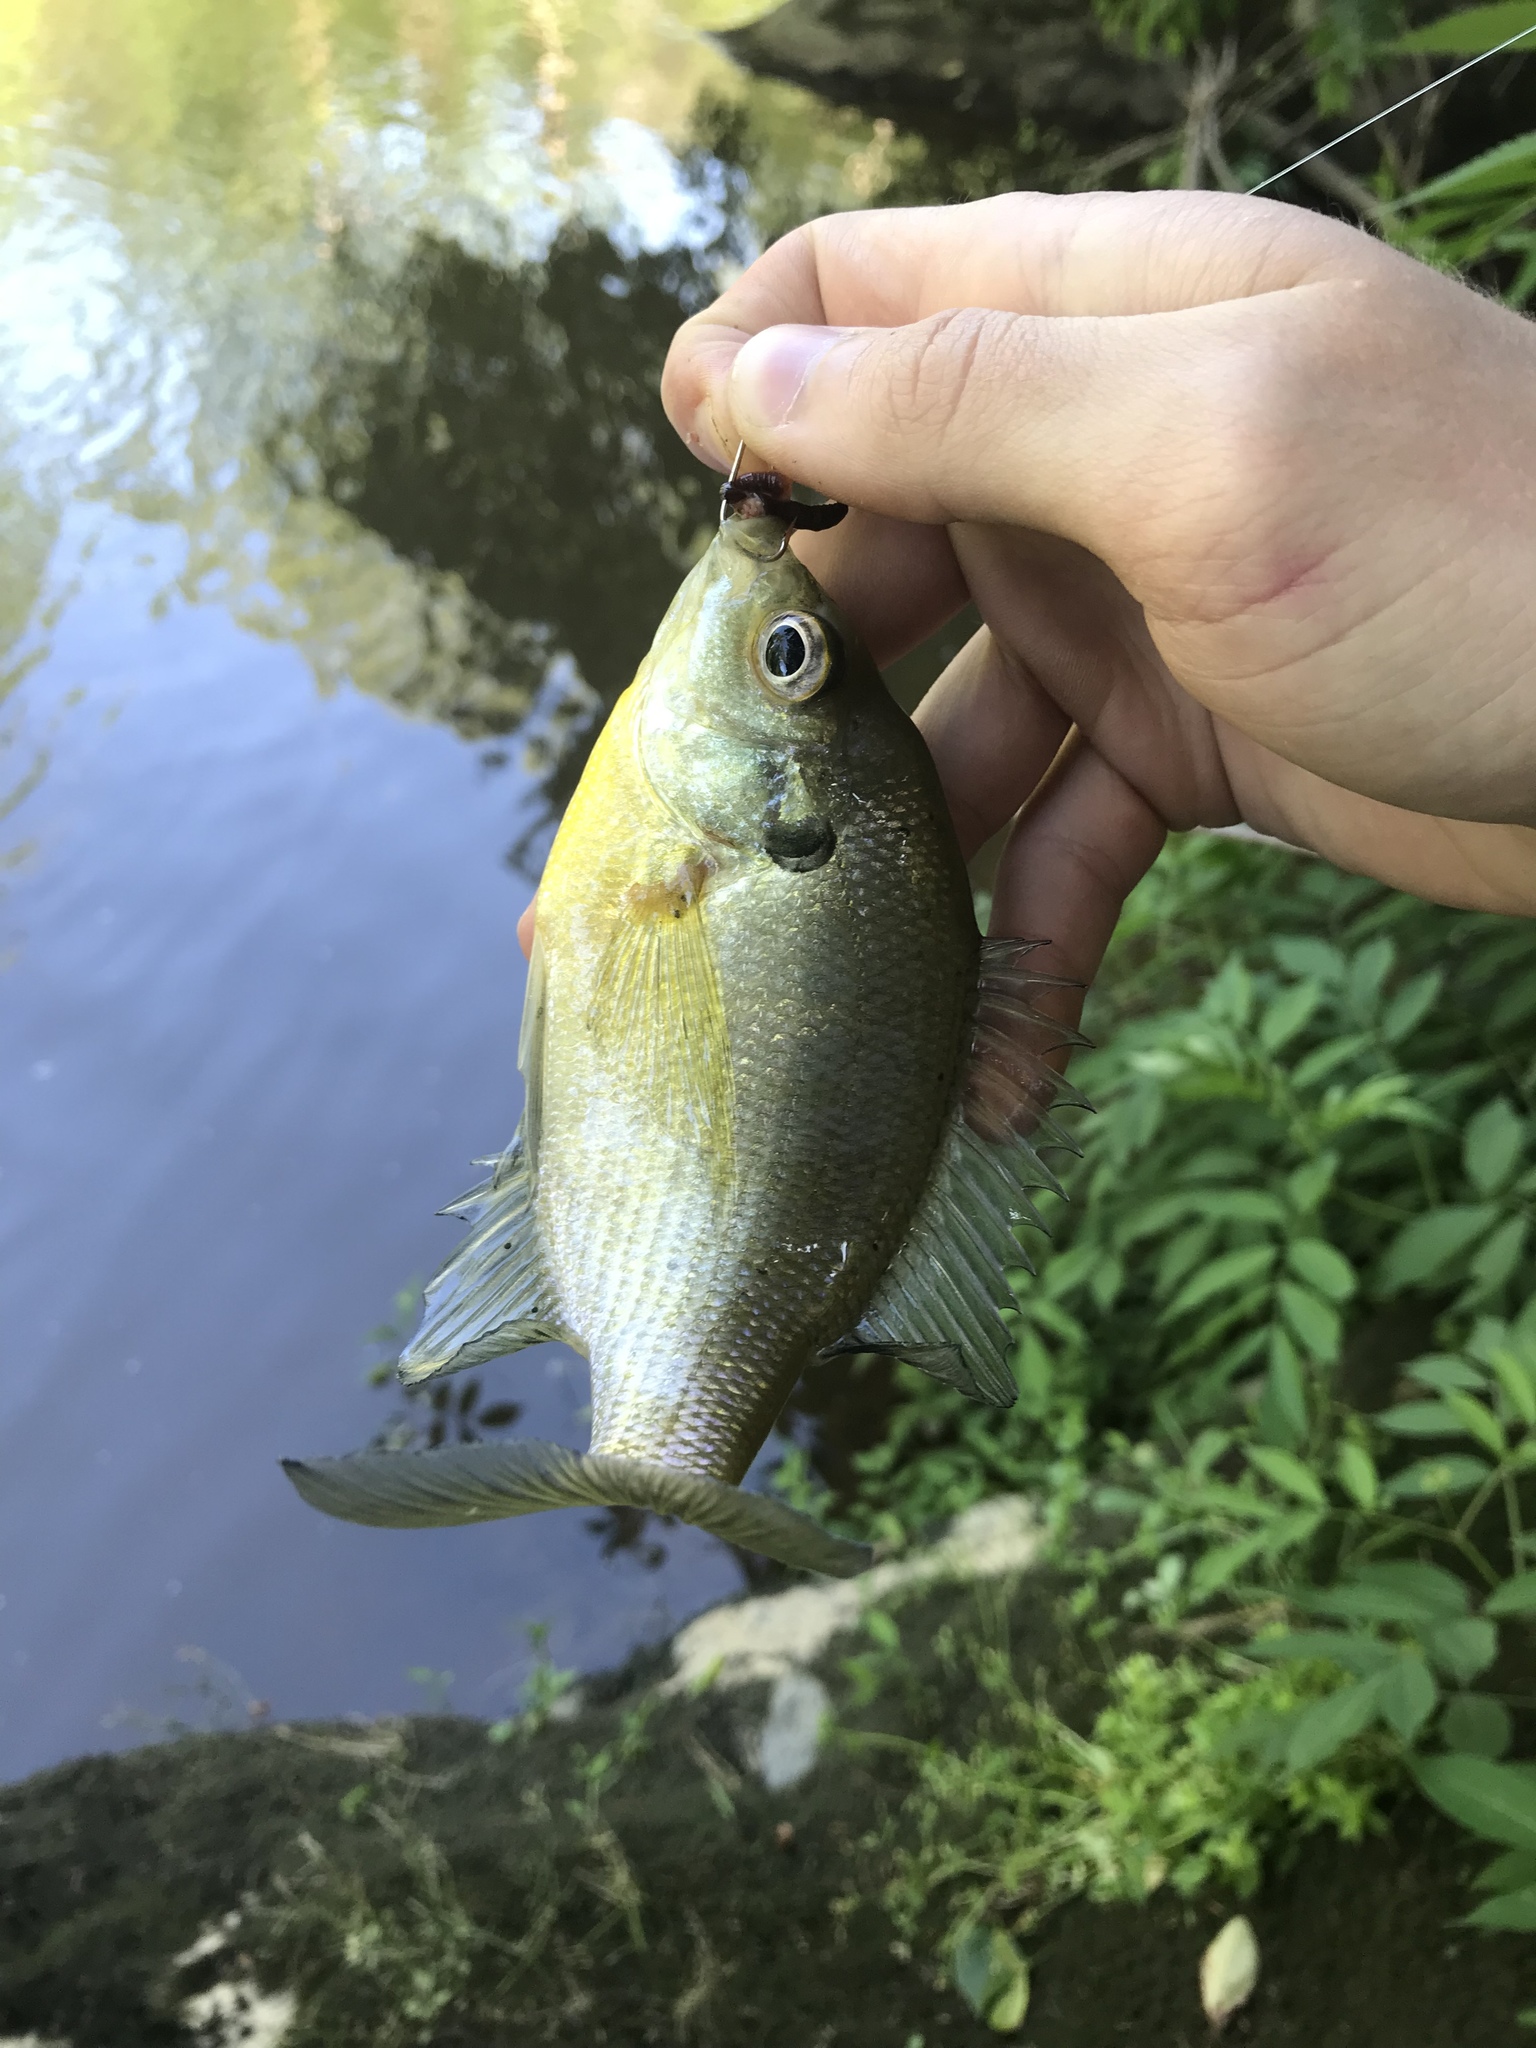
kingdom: Animalia
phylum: Chordata
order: Perciformes
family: Centrarchidae
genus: Lepomis
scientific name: Lepomis macrochirus
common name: Bluegill
